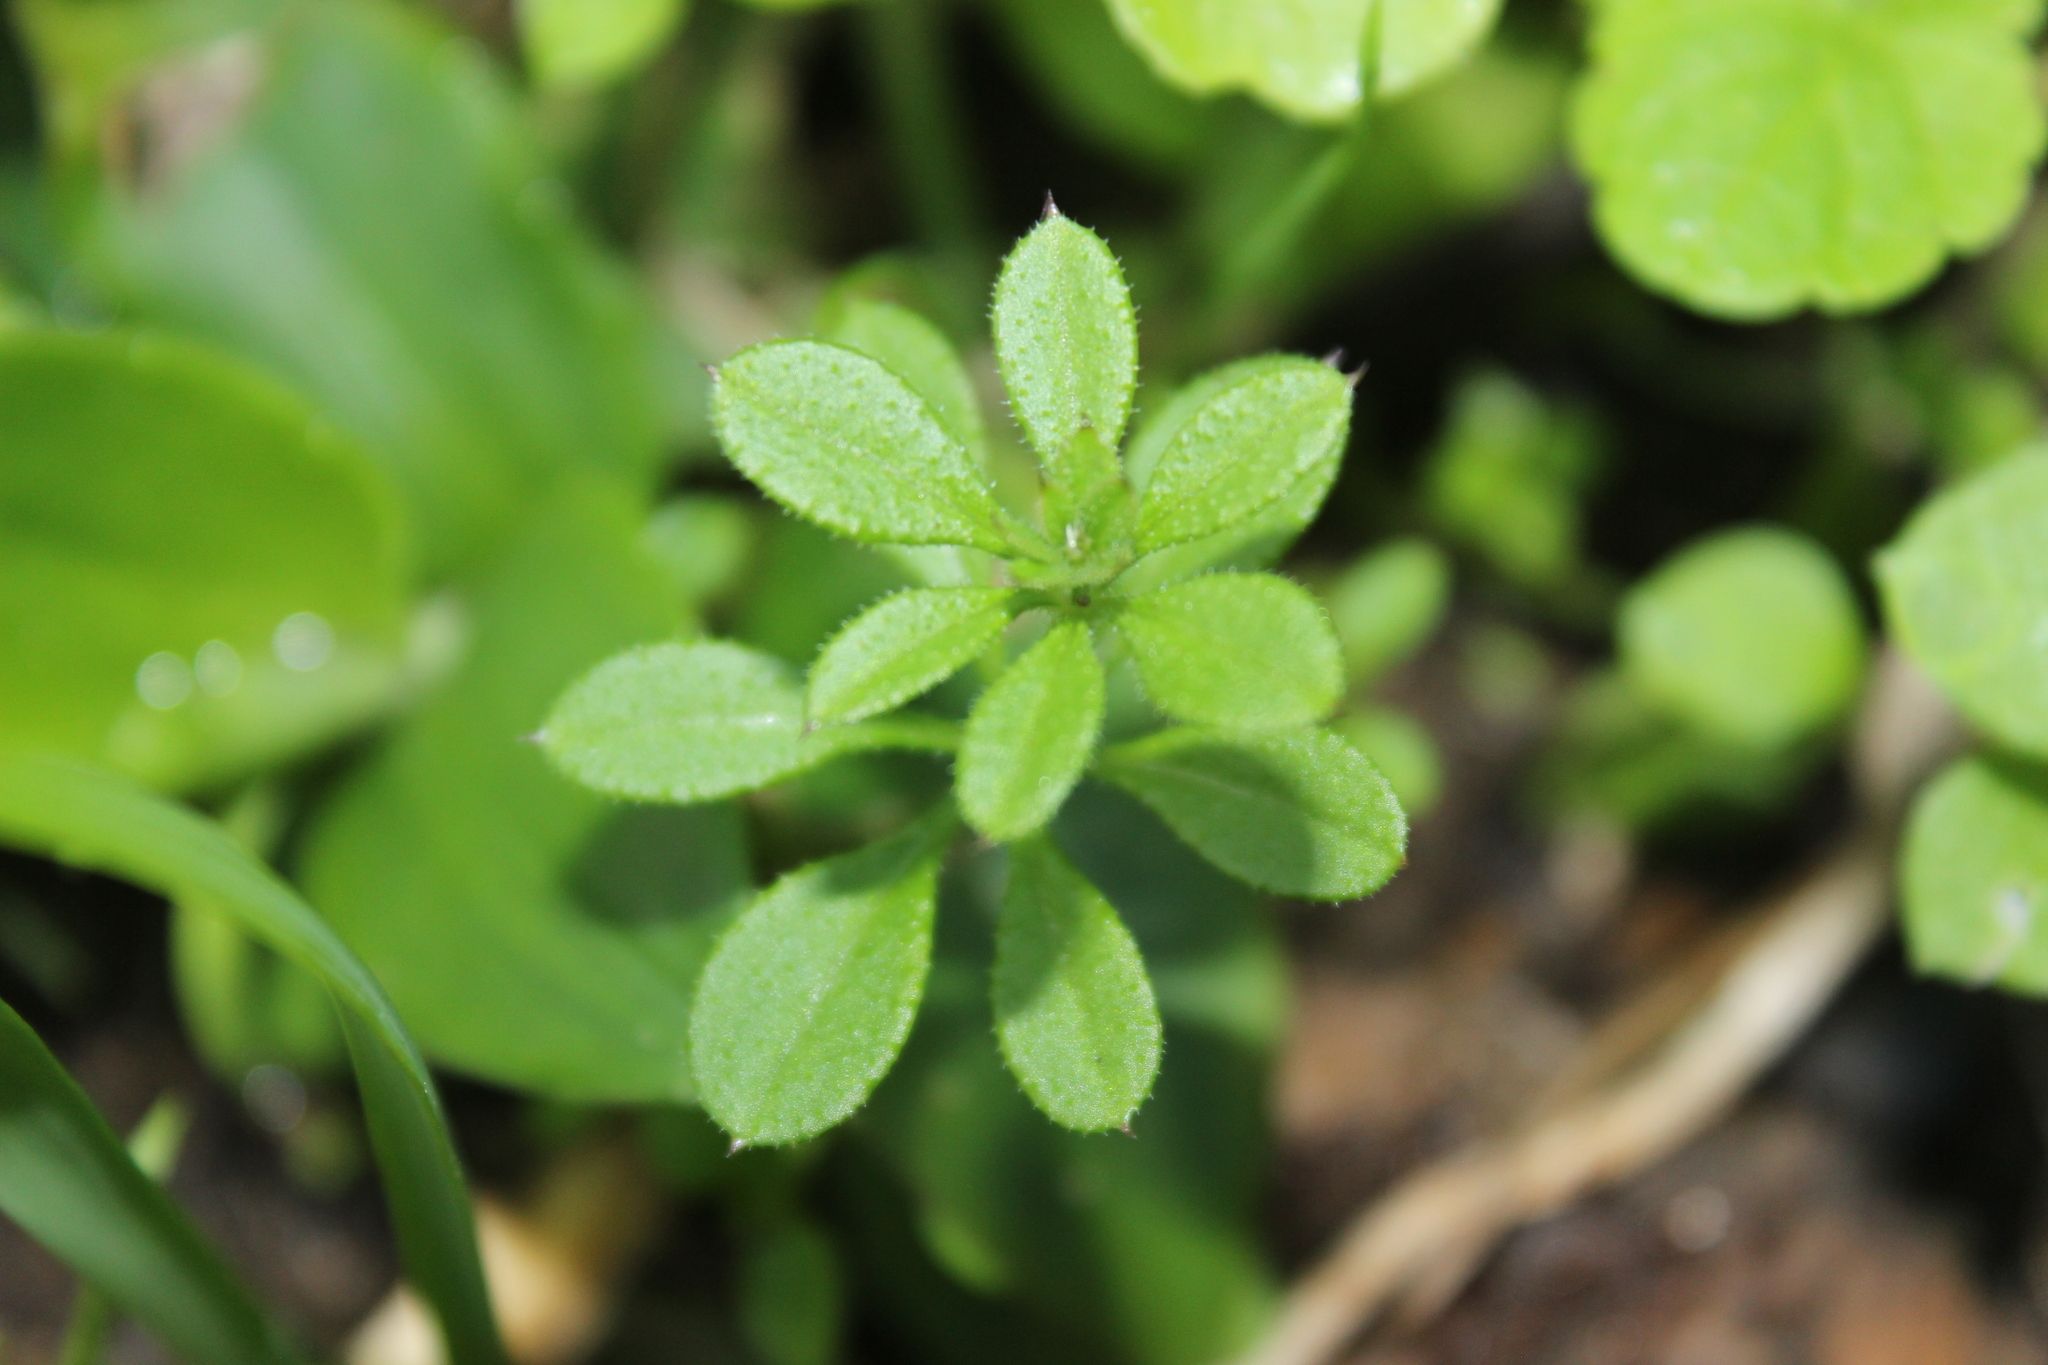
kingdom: Plantae
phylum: Tracheophyta
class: Magnoliopsida
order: Gentianales
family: Rubiaceae
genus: Galium
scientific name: Galium aparine
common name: Cleavers
